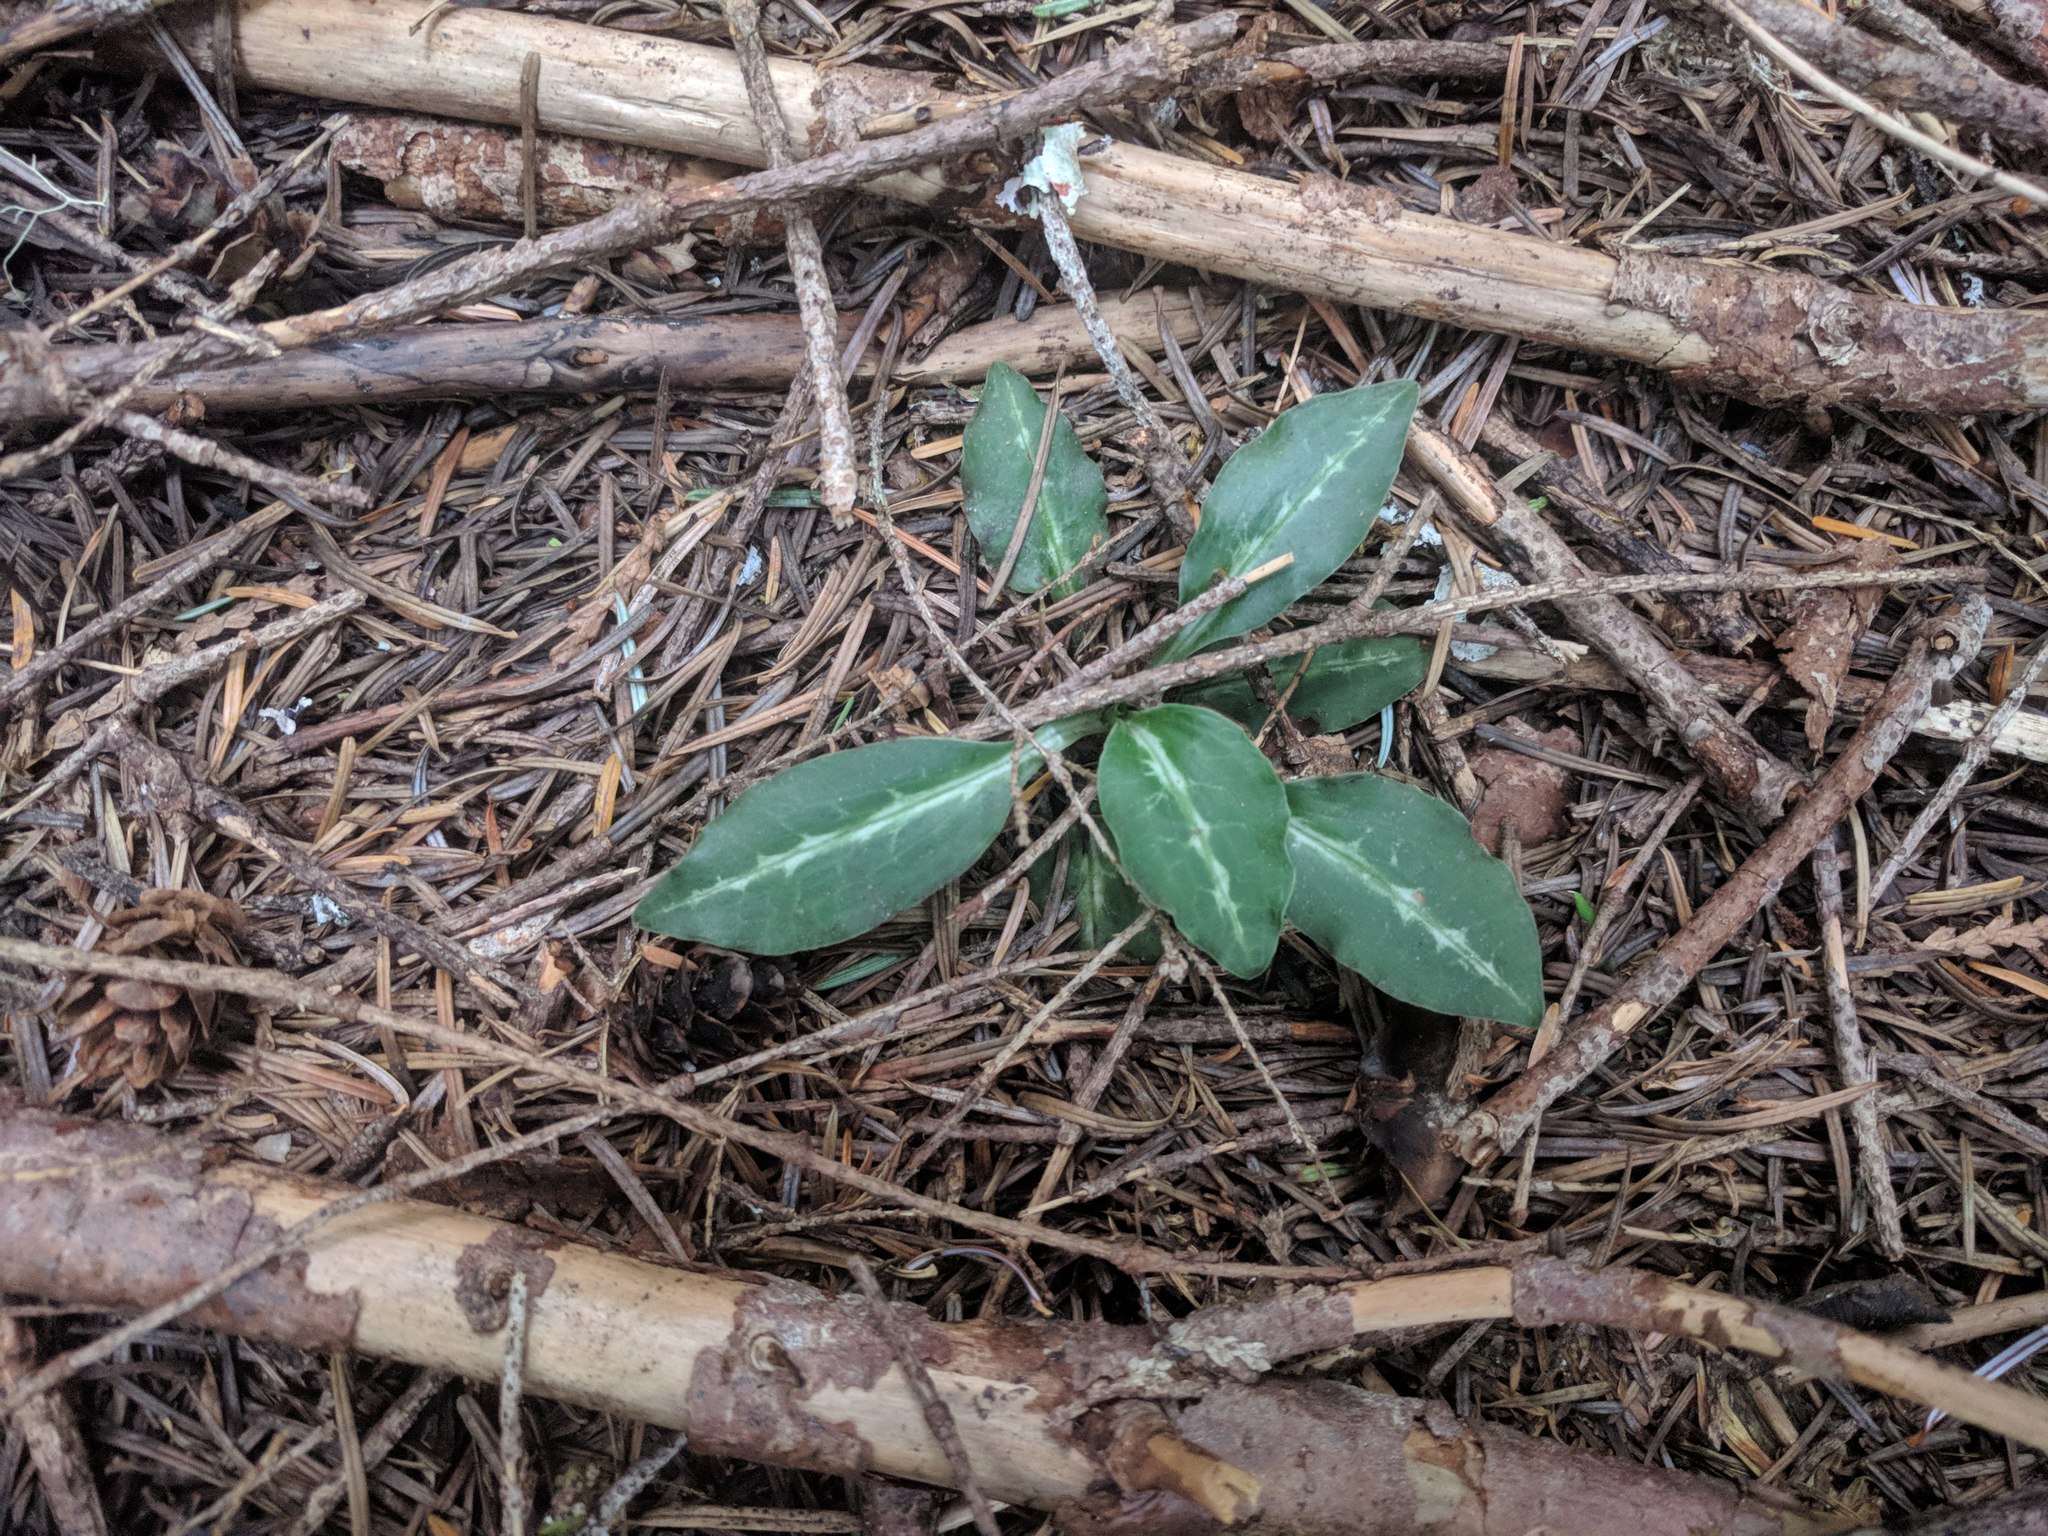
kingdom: Plantae
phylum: Tracheophyta
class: Liliopsida
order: Asparagales
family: Orchidaceae
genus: Goodyera
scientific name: Goodyera oblongifolia
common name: Giant rattlesnake-plantain
